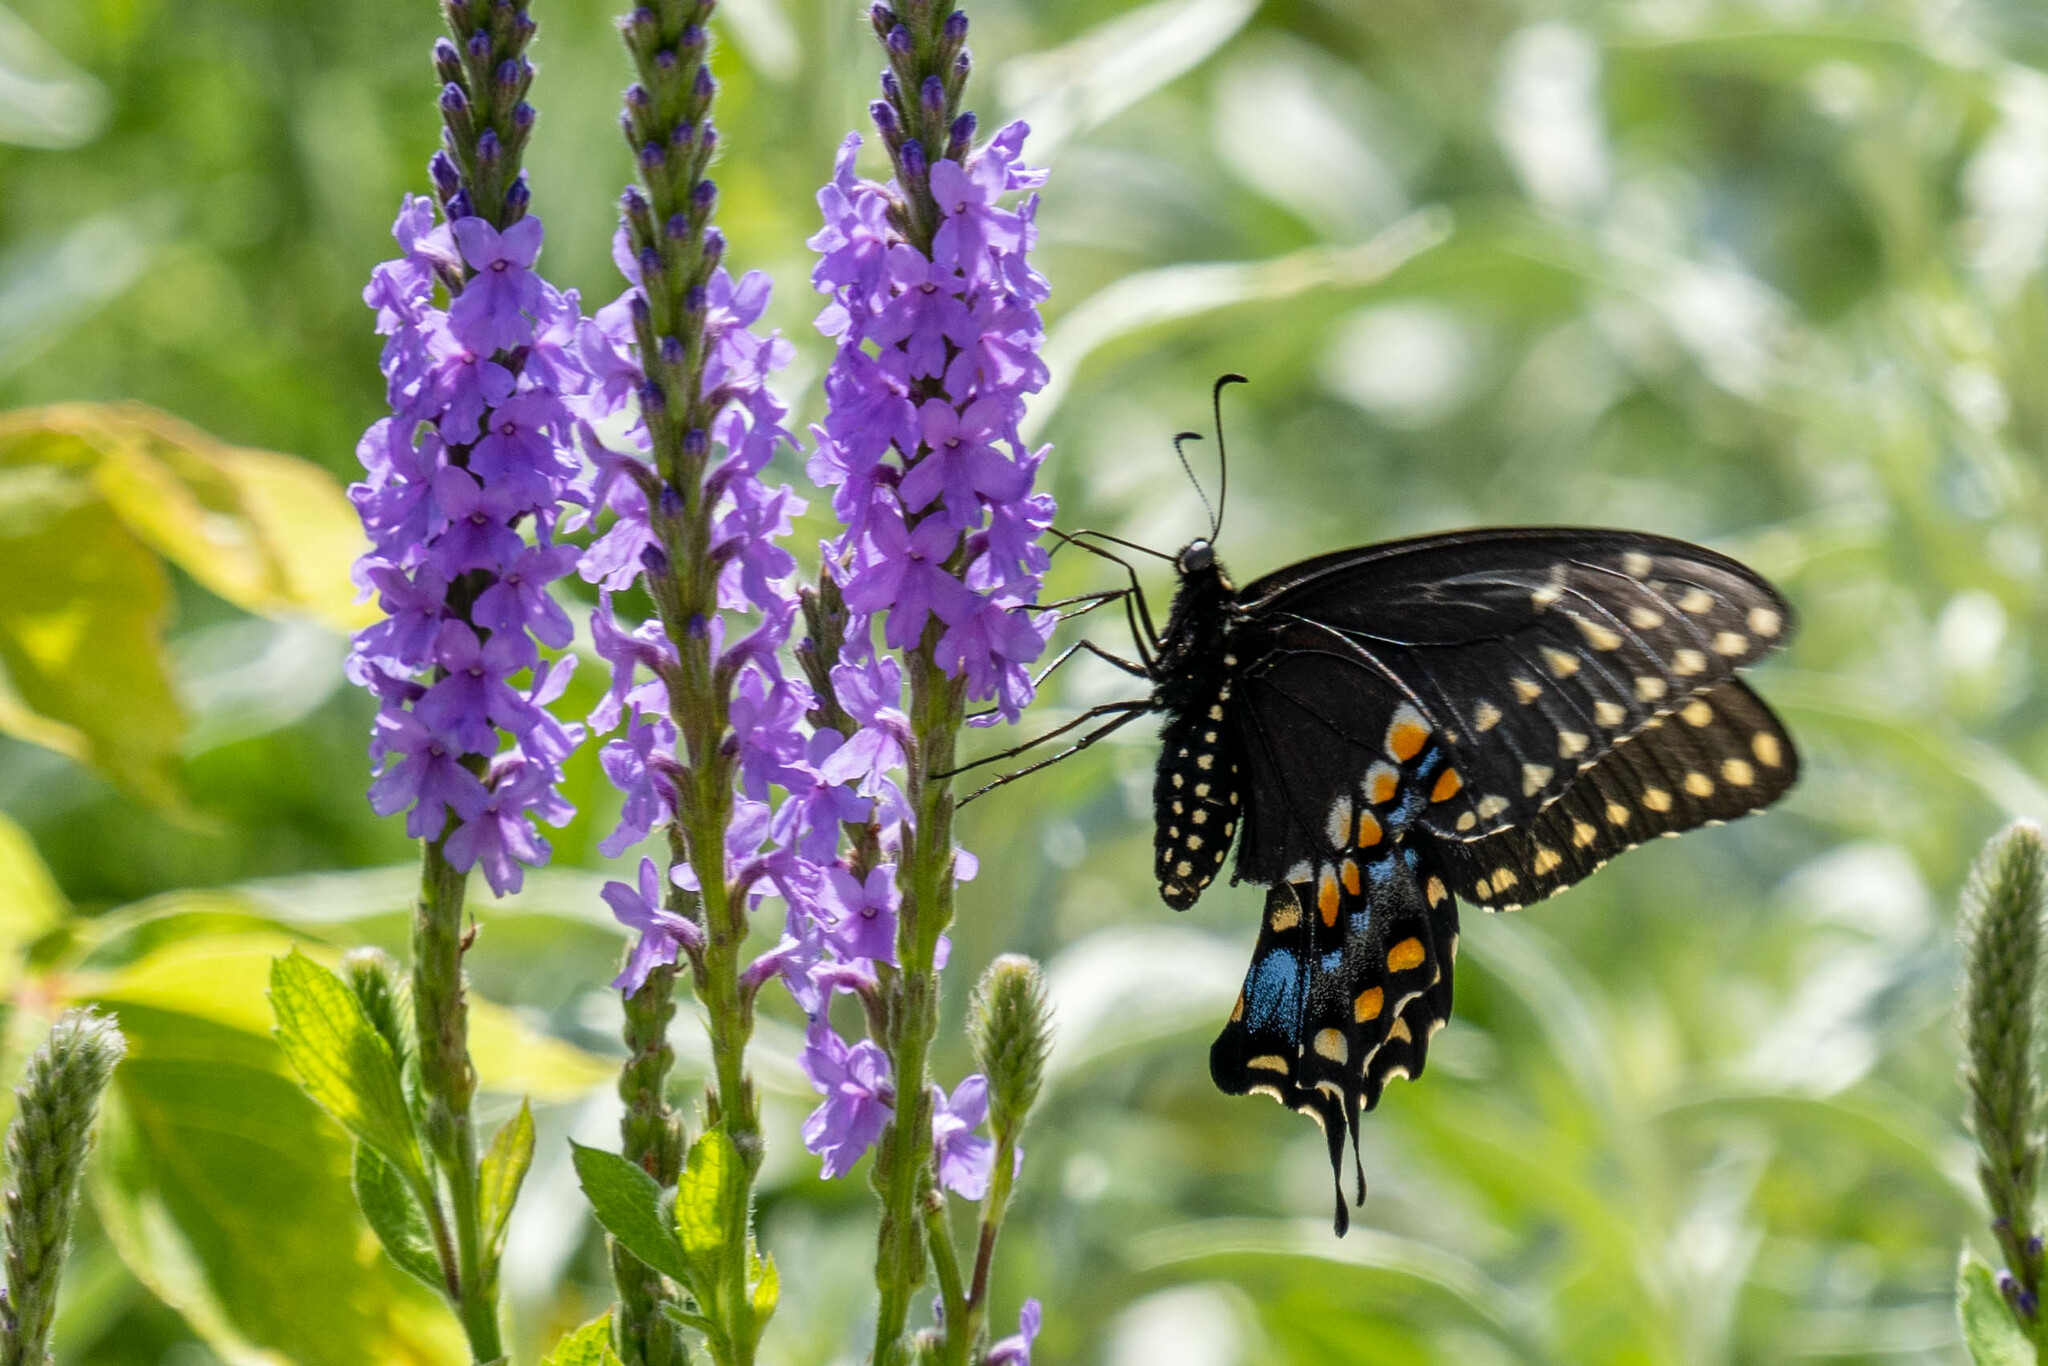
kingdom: Animalia
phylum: Arthropoda
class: Insecta
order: Lepidoptera
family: Papilionidae
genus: Papilio
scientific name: Papilio polyxenes
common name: Black swallowtail
